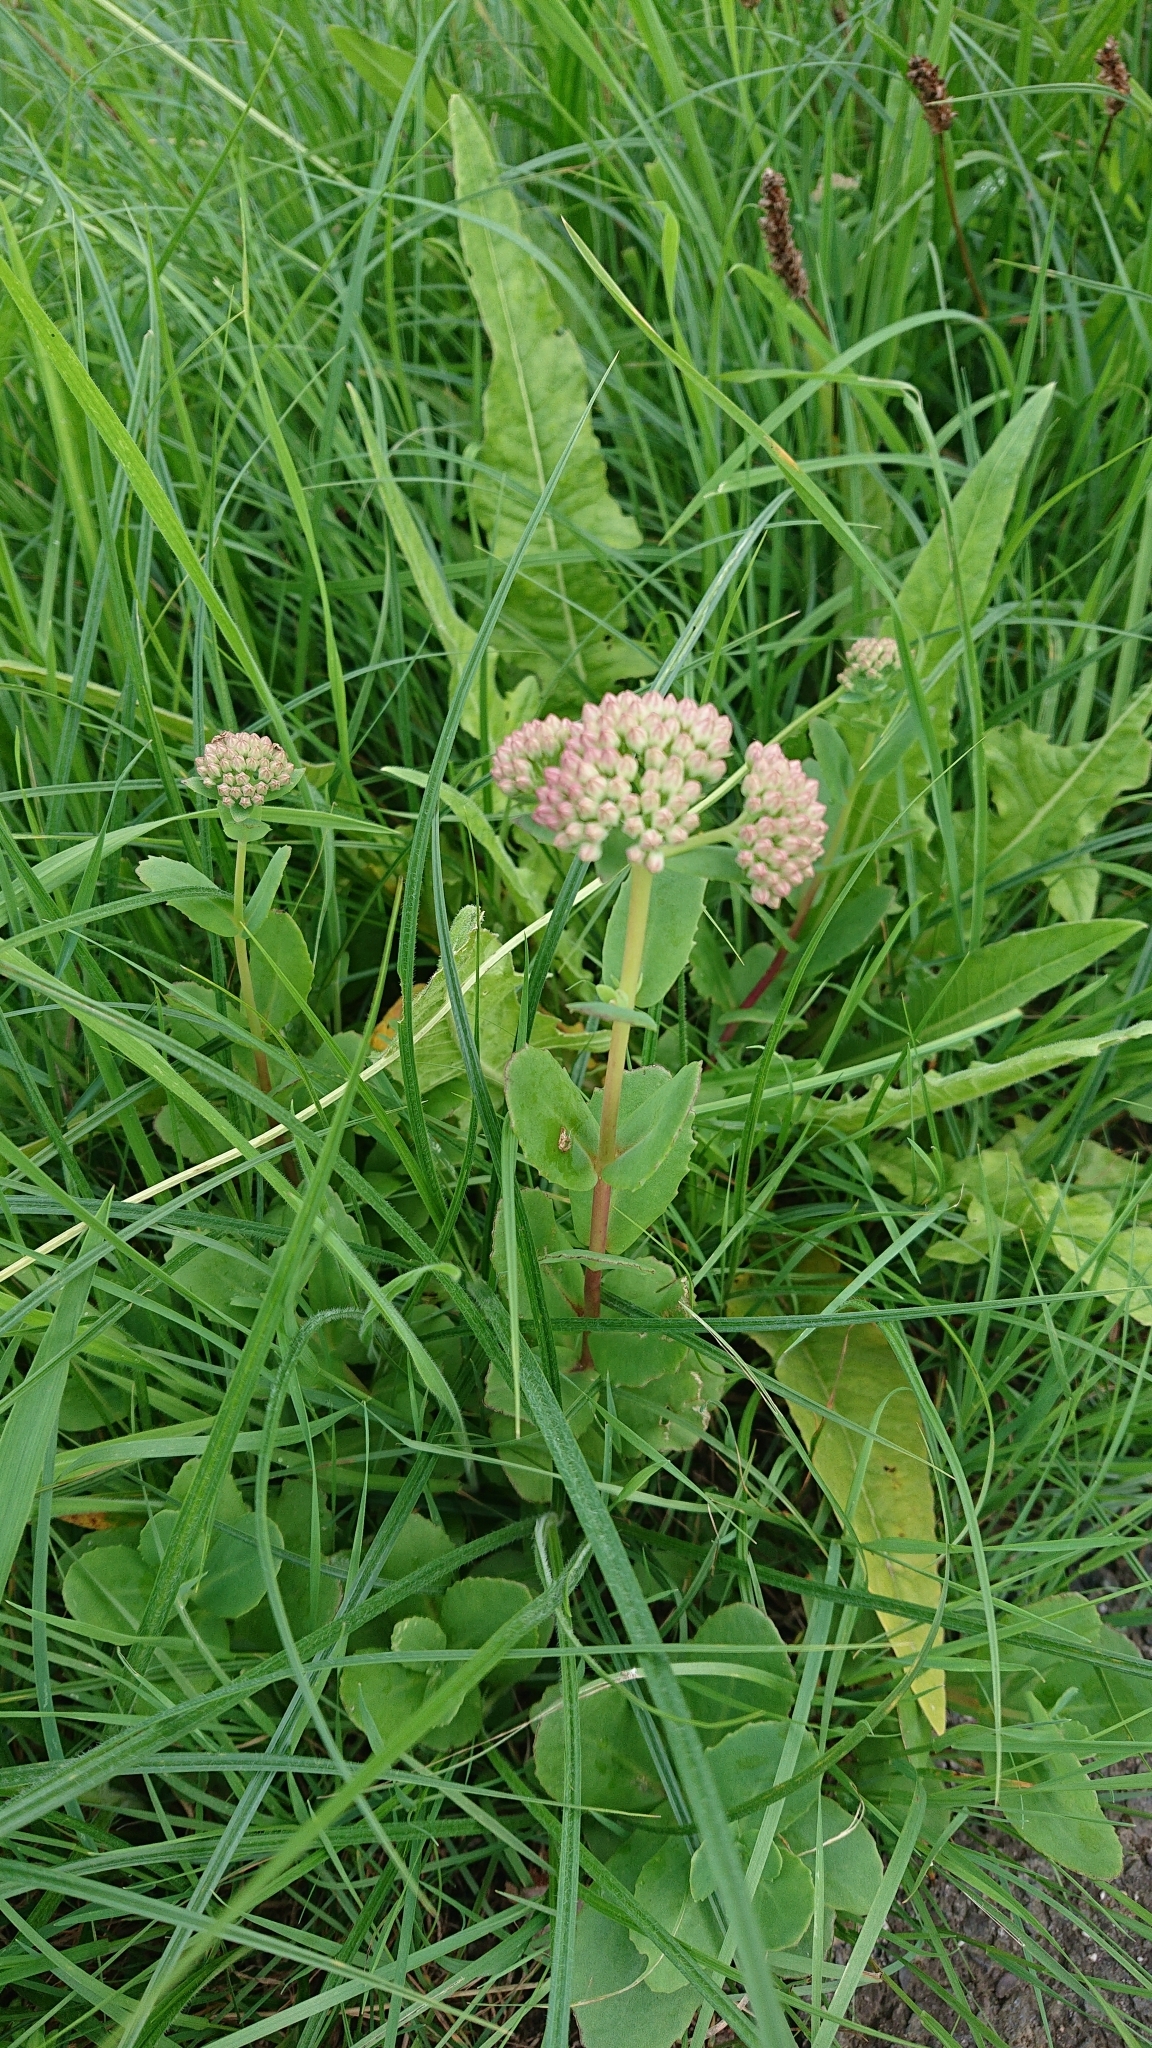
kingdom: Plantae
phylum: Tracheophyta
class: Magnoliopsida
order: Saxifragales
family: Crassulaceae
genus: Hylotelephium
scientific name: Hylotelephium maximum
